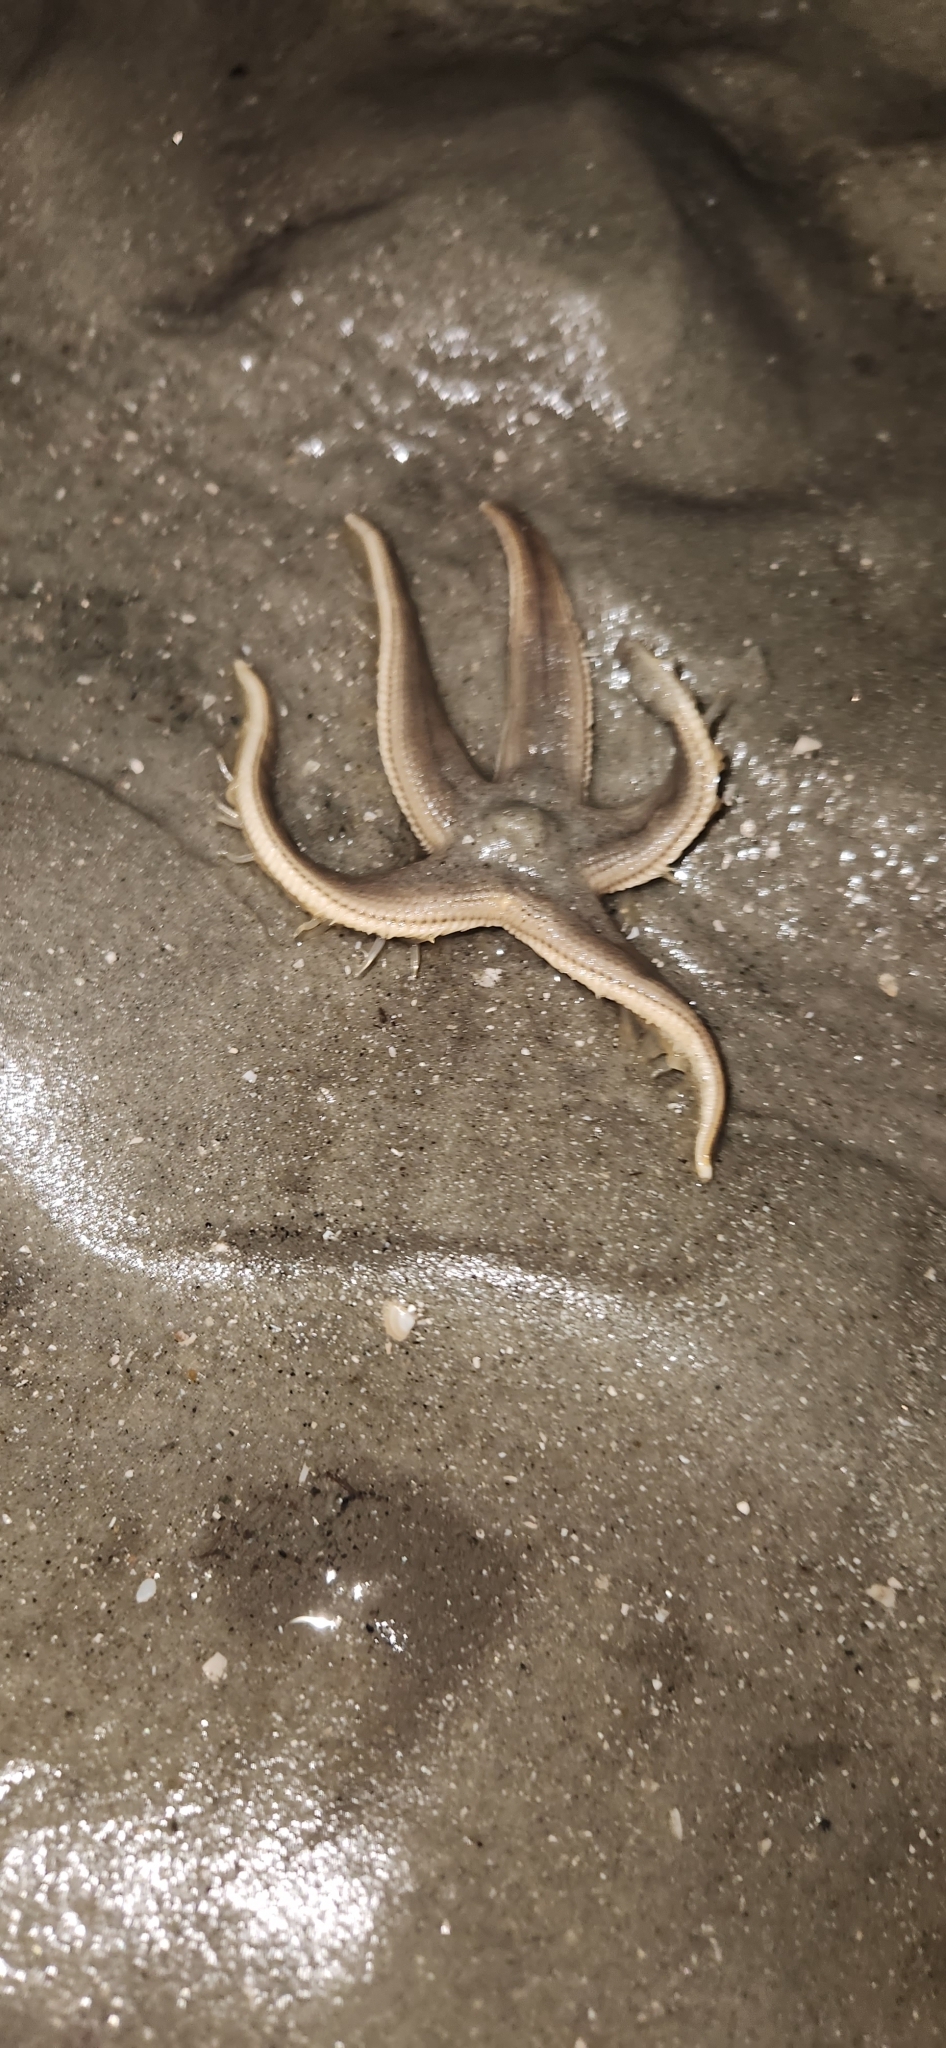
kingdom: Animalia
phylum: Echinodermata
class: Asteroidea
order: Paxillosida
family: Luidiidae
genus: Luidia
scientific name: Luidia clathrata
